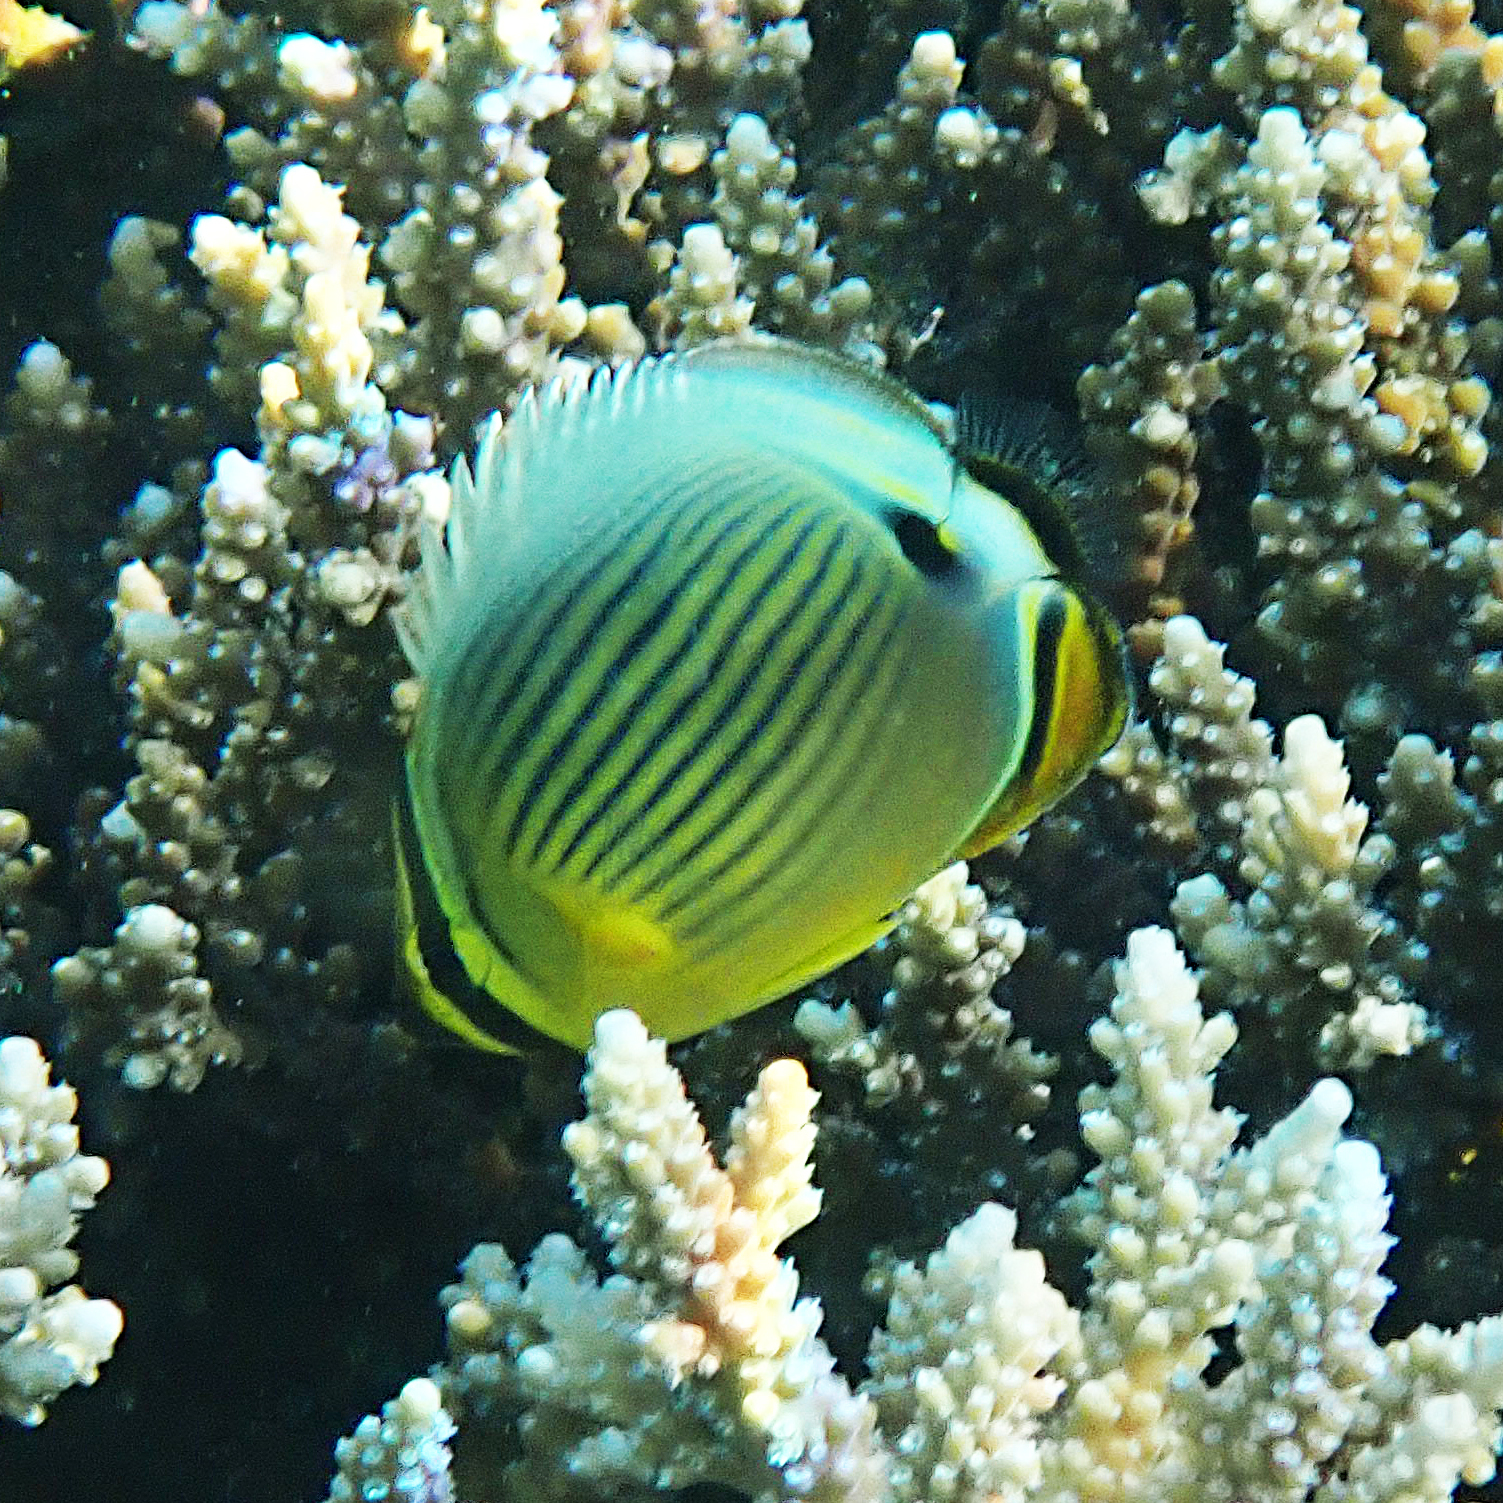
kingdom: Animalia
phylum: Chordata
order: Perciformes
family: Chaetodontidae
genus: Chaetodon
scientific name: Chaetodon lunulatus
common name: Redfin butterflyfish
